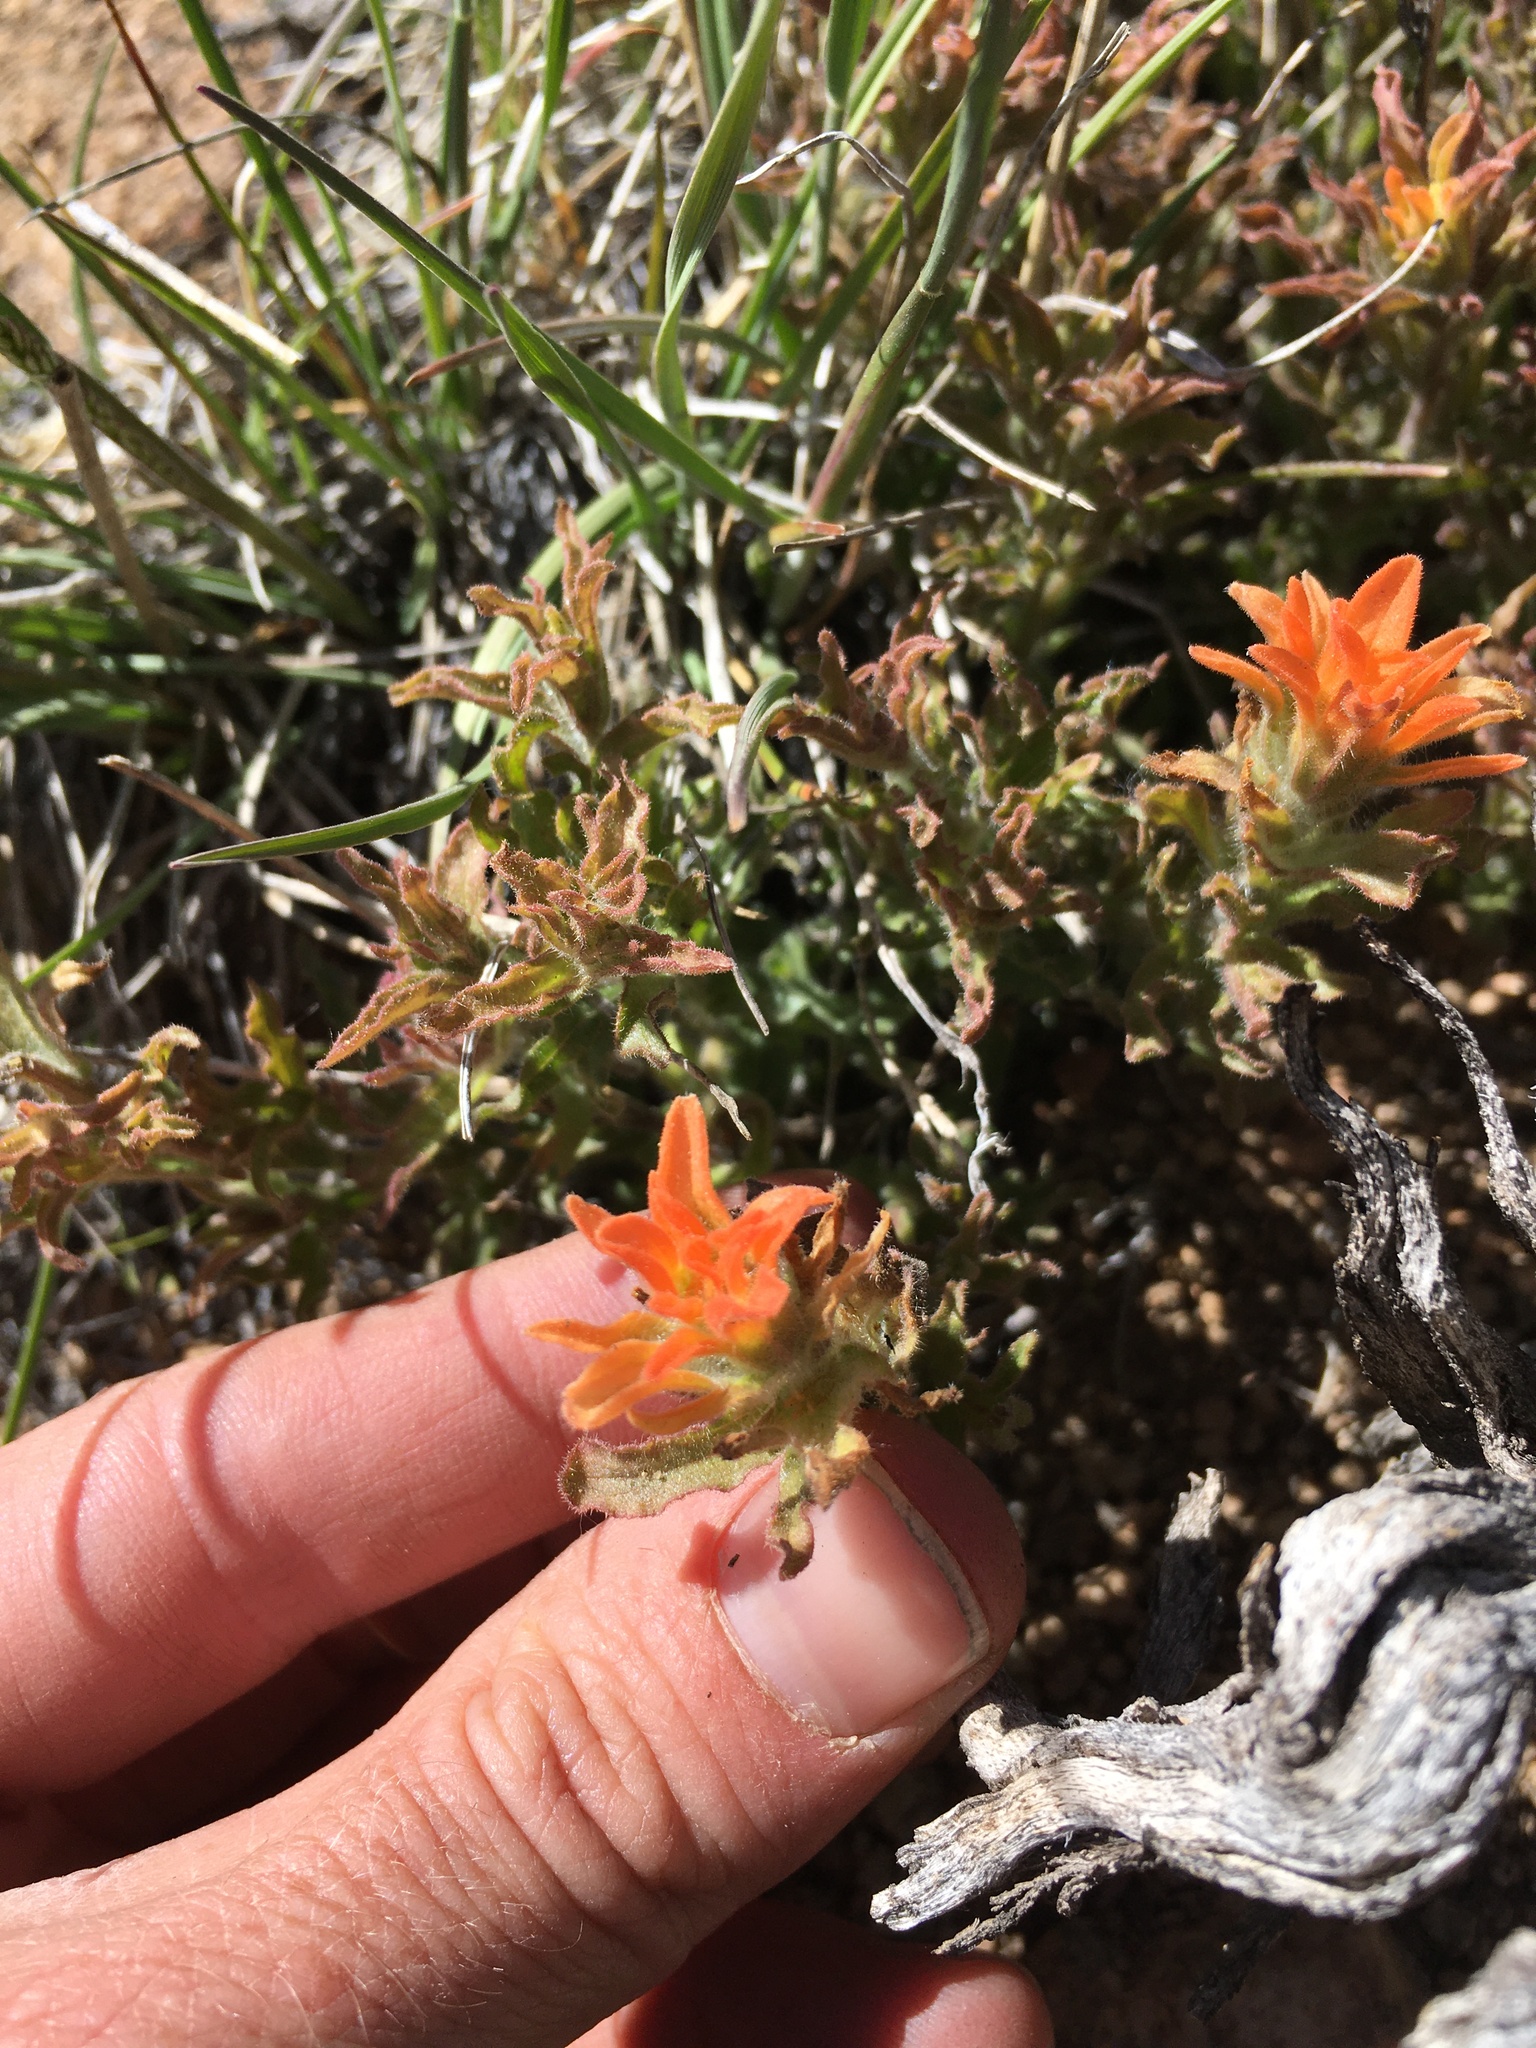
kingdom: Plantae
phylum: Tracheophyta
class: Magnoliopsida
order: Lamiales
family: Orobanchaceae
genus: Castilleja
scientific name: Castilleja applegatei
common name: Wavy-leaf paintbrush
